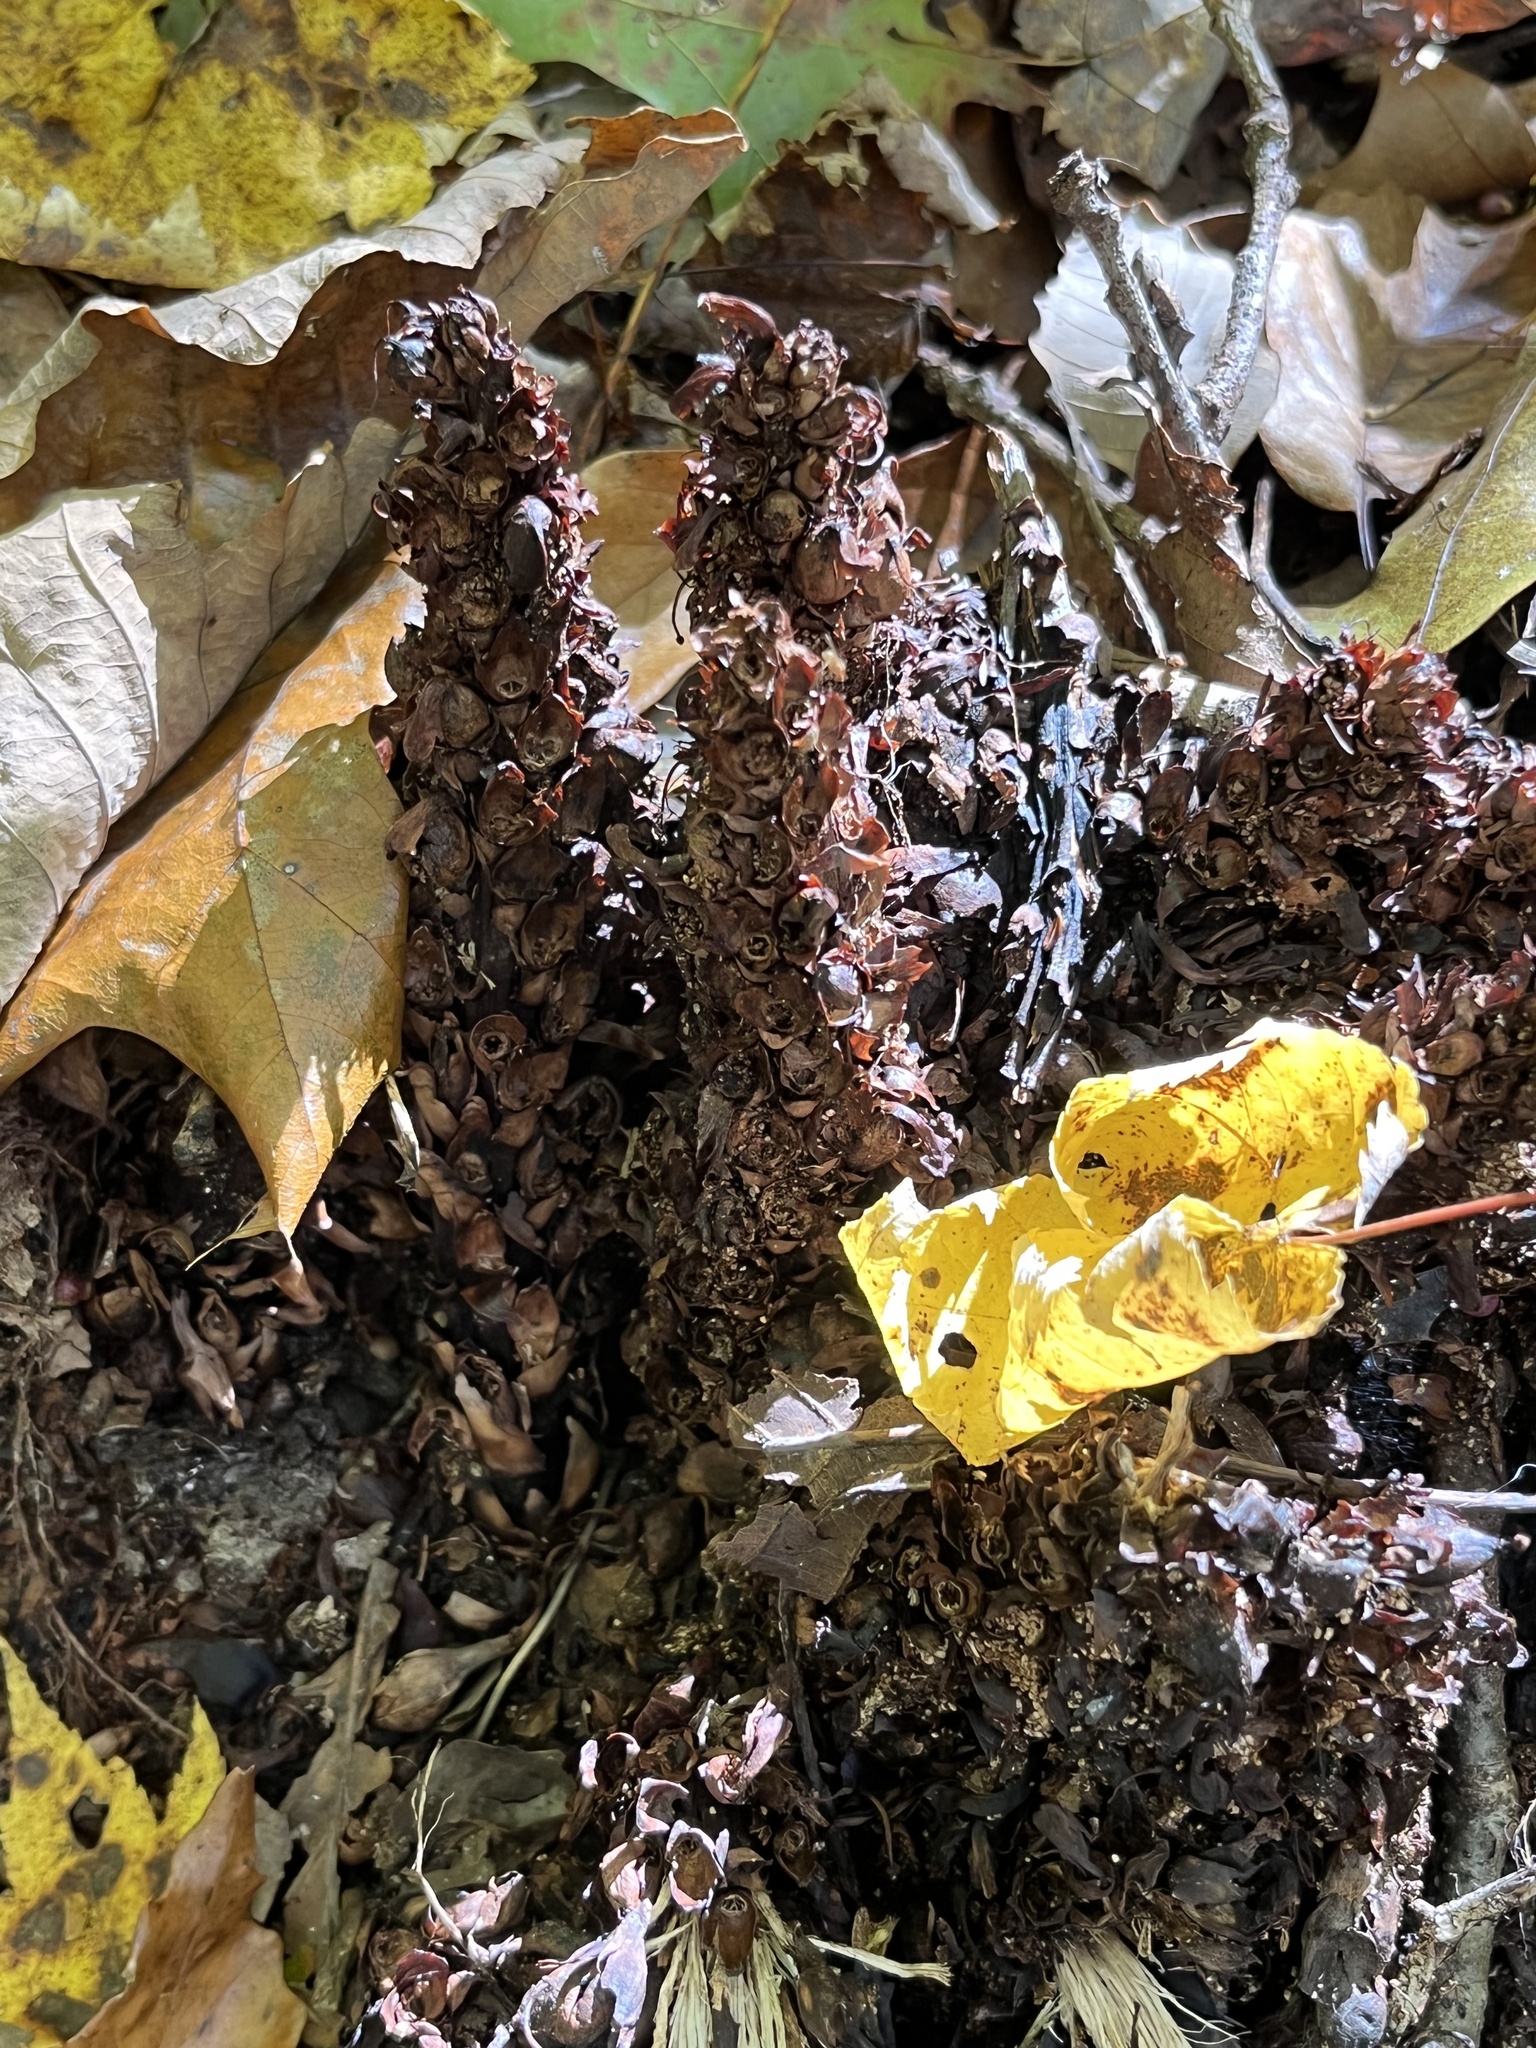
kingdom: Plantae
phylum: Tracheophyta
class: Magnoliopsida
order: Lamiales
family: Orobanchaceae
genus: Conopholis
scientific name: Conopholis americana
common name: American cancer-root
